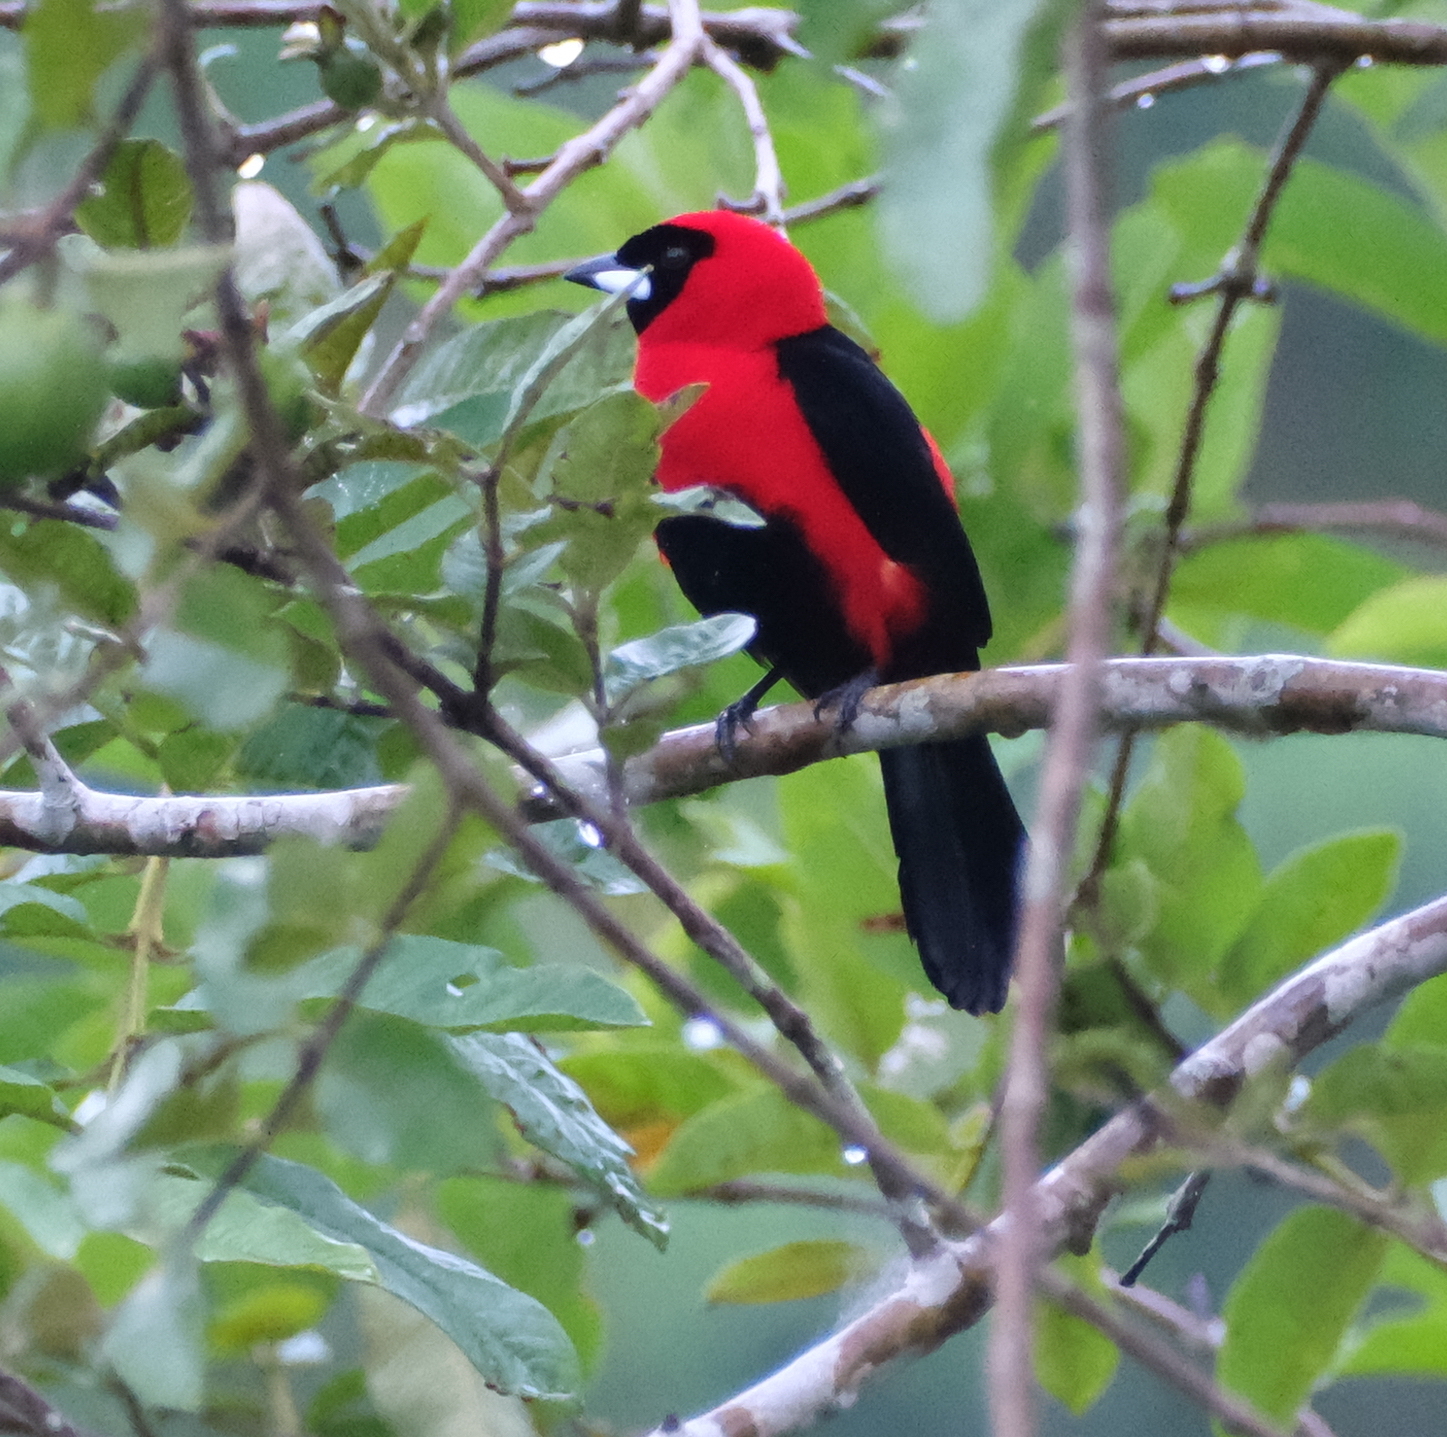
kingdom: Animalia
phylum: Chordata
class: Aves
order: Passeriformes
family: Thraupidae
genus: Ramphocelus
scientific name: Ramphocelus nigrogularis
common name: Masked crimson tanager
